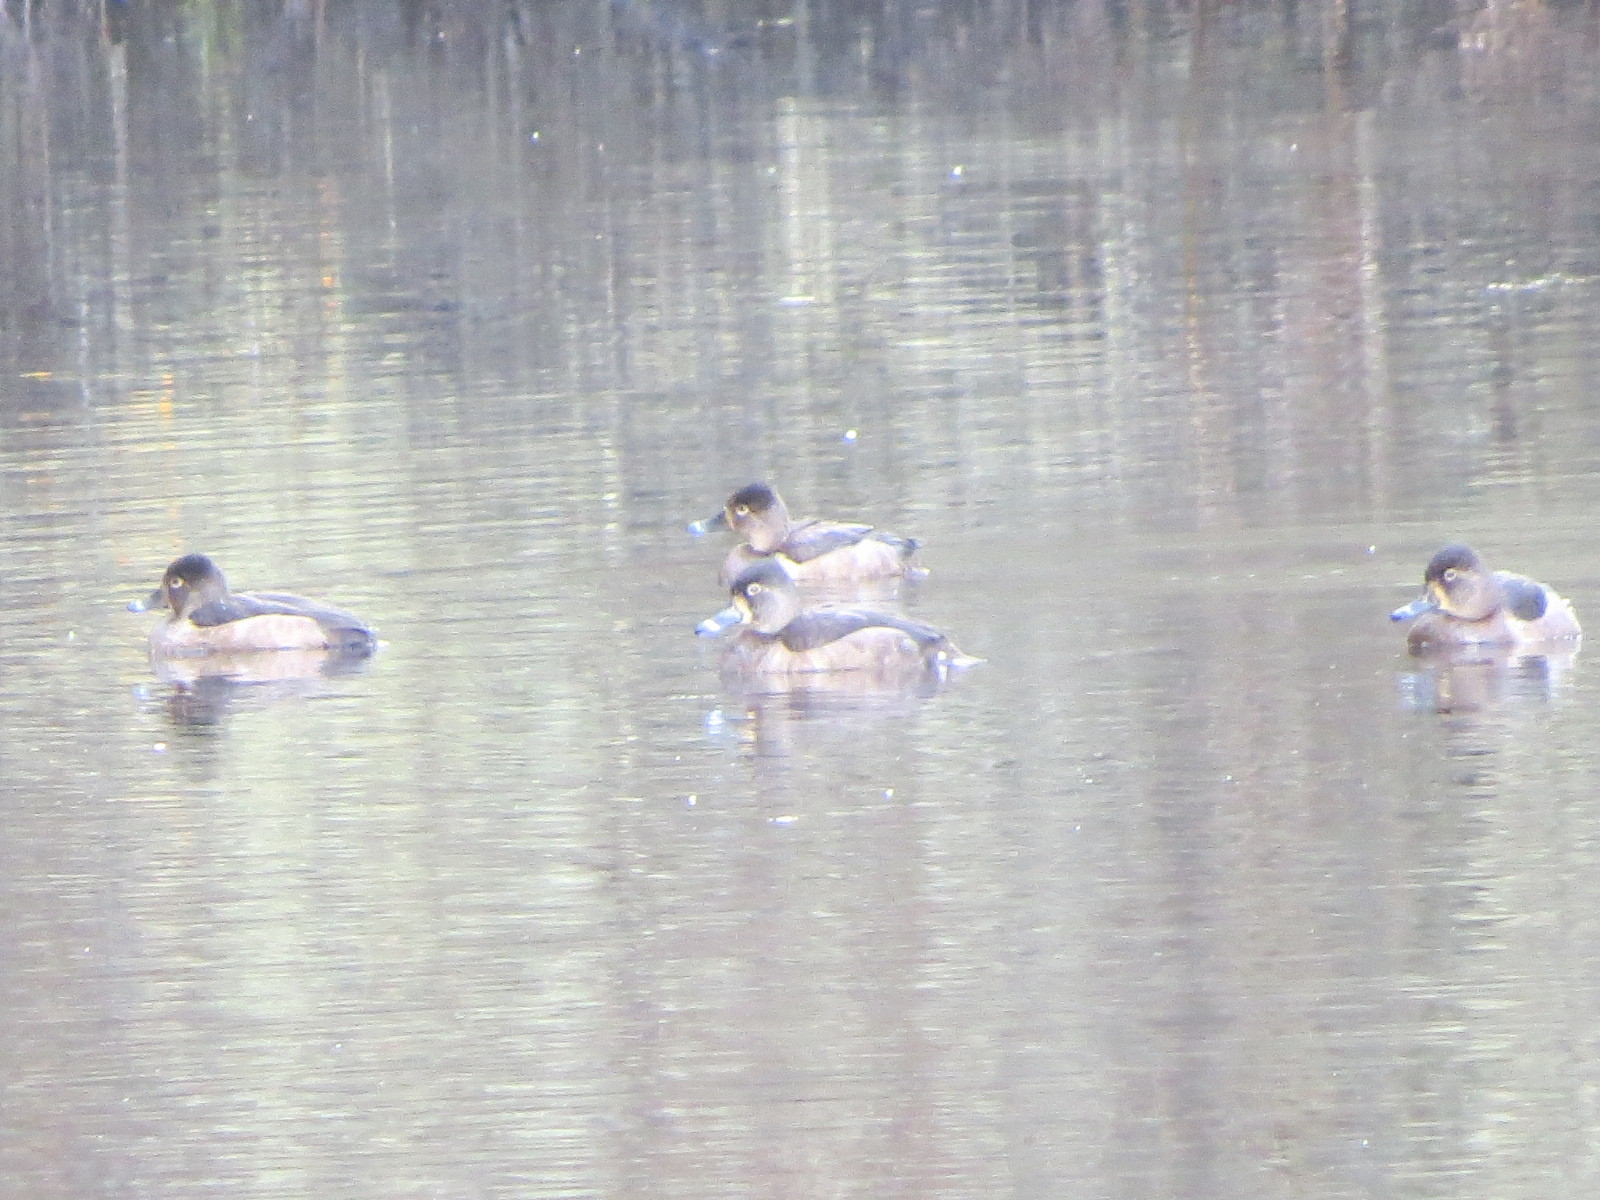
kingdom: Animalia
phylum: Chordata
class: Aves
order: Anseriformes
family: Anatidae
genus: Aythya
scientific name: Aythya collaris
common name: Ring-necked duck
